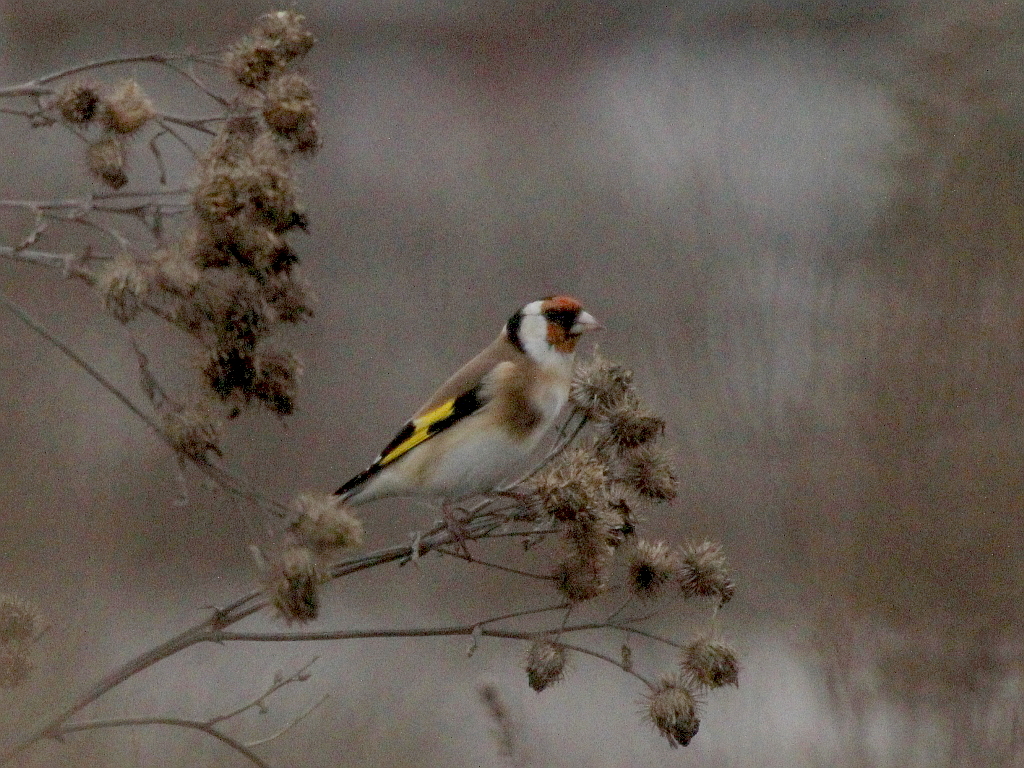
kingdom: Animalia
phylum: Chordata
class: Aves
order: Passeriformes
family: Fringillidae
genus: Carduelis
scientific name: Carduelis carduelis
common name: European goldfinch
